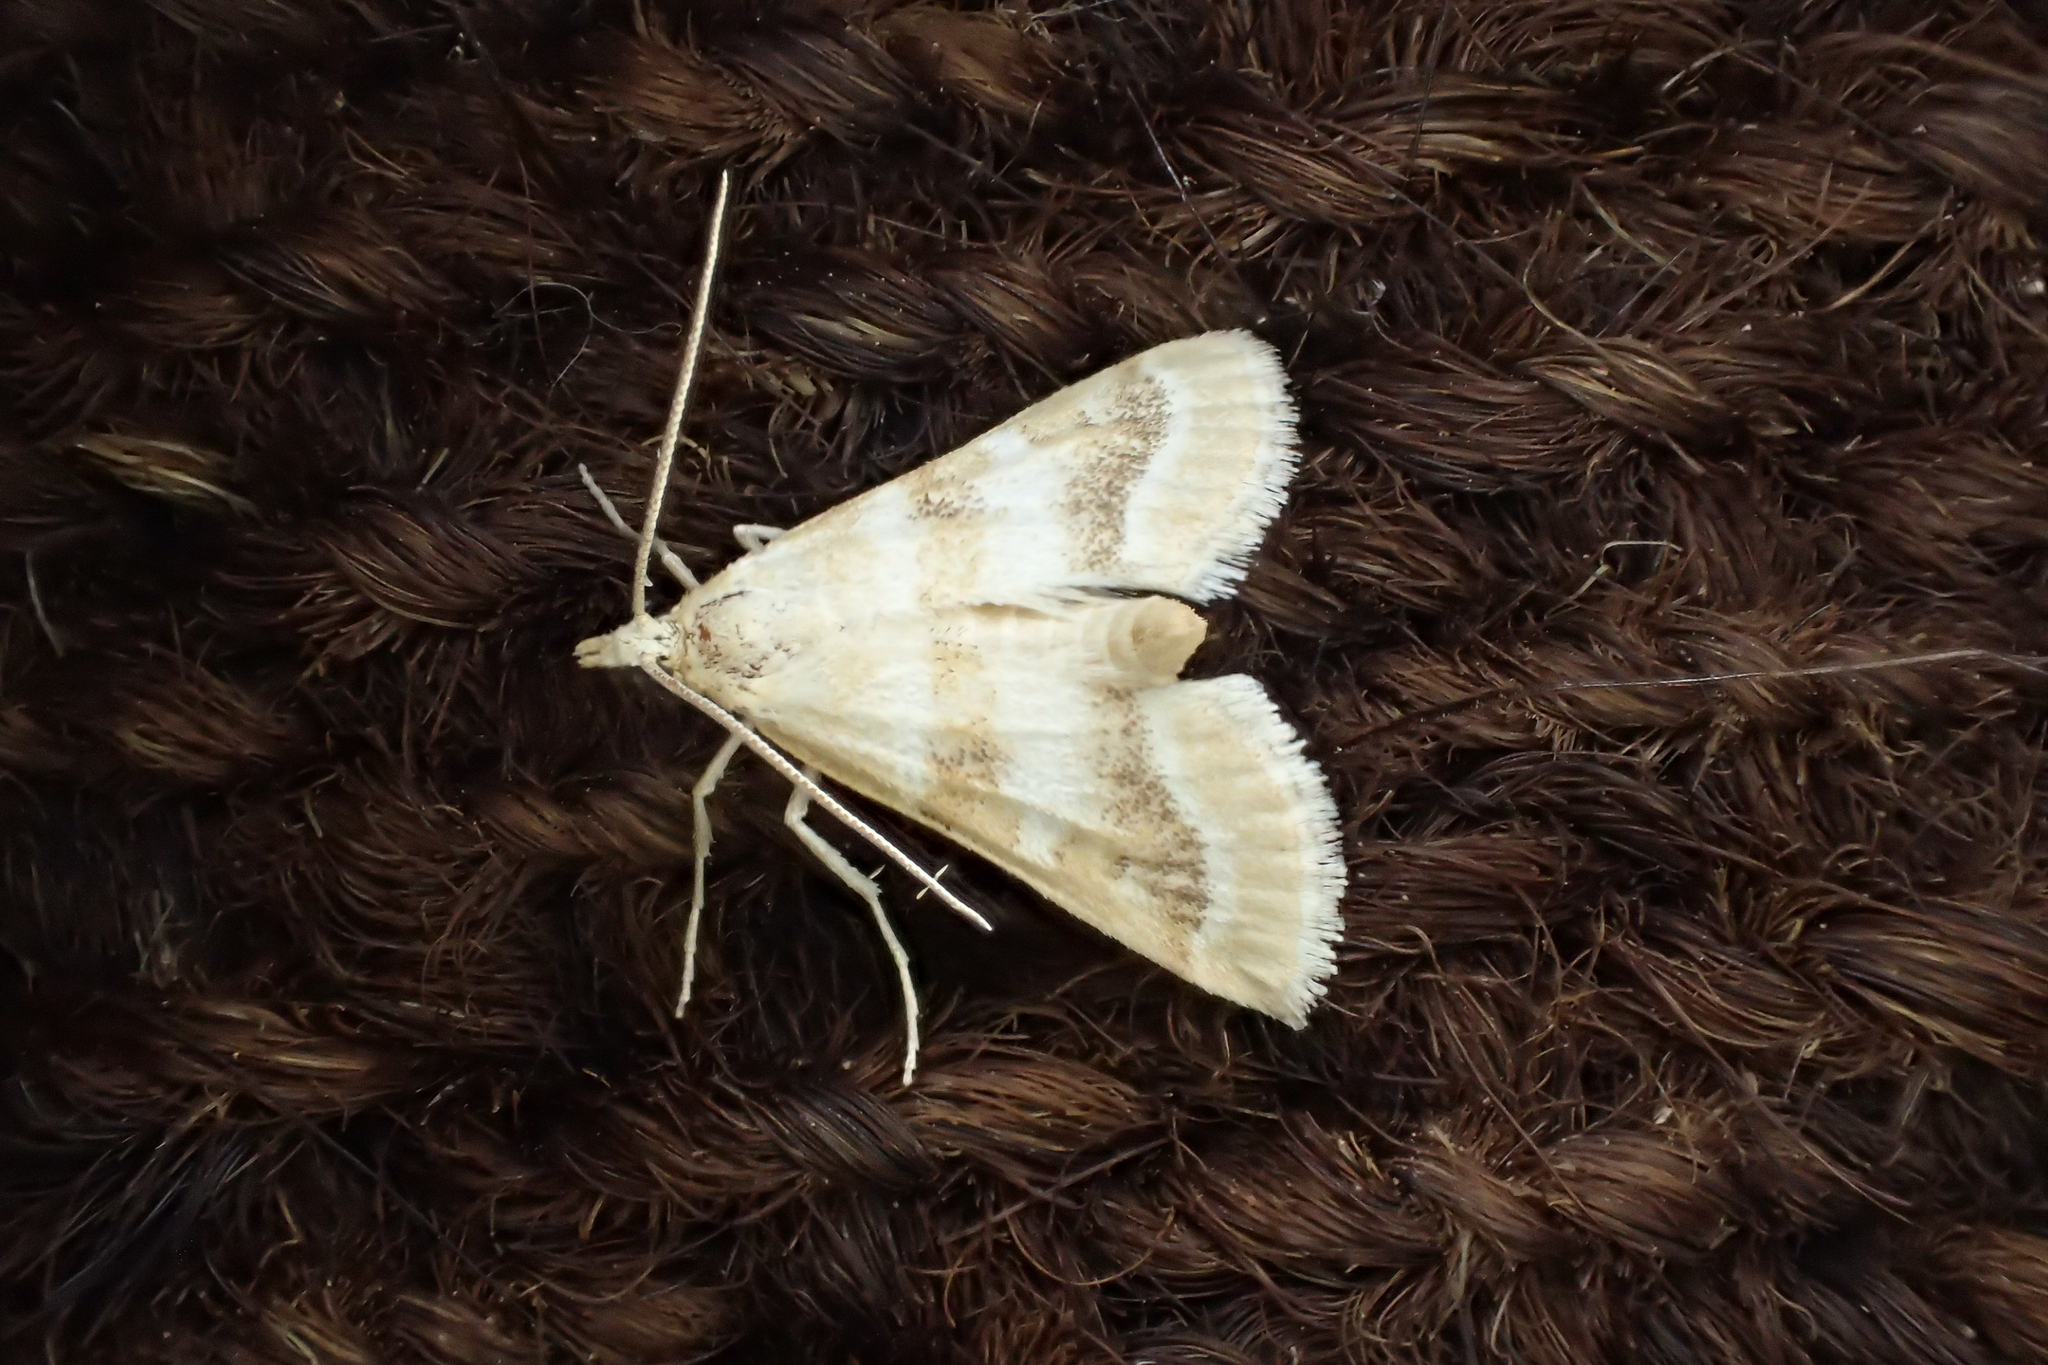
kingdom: Animalia
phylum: Arthropoda
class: Insecta
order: Lepidoptera
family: Crambidae
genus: Metasia
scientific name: Metasia suppandalis
